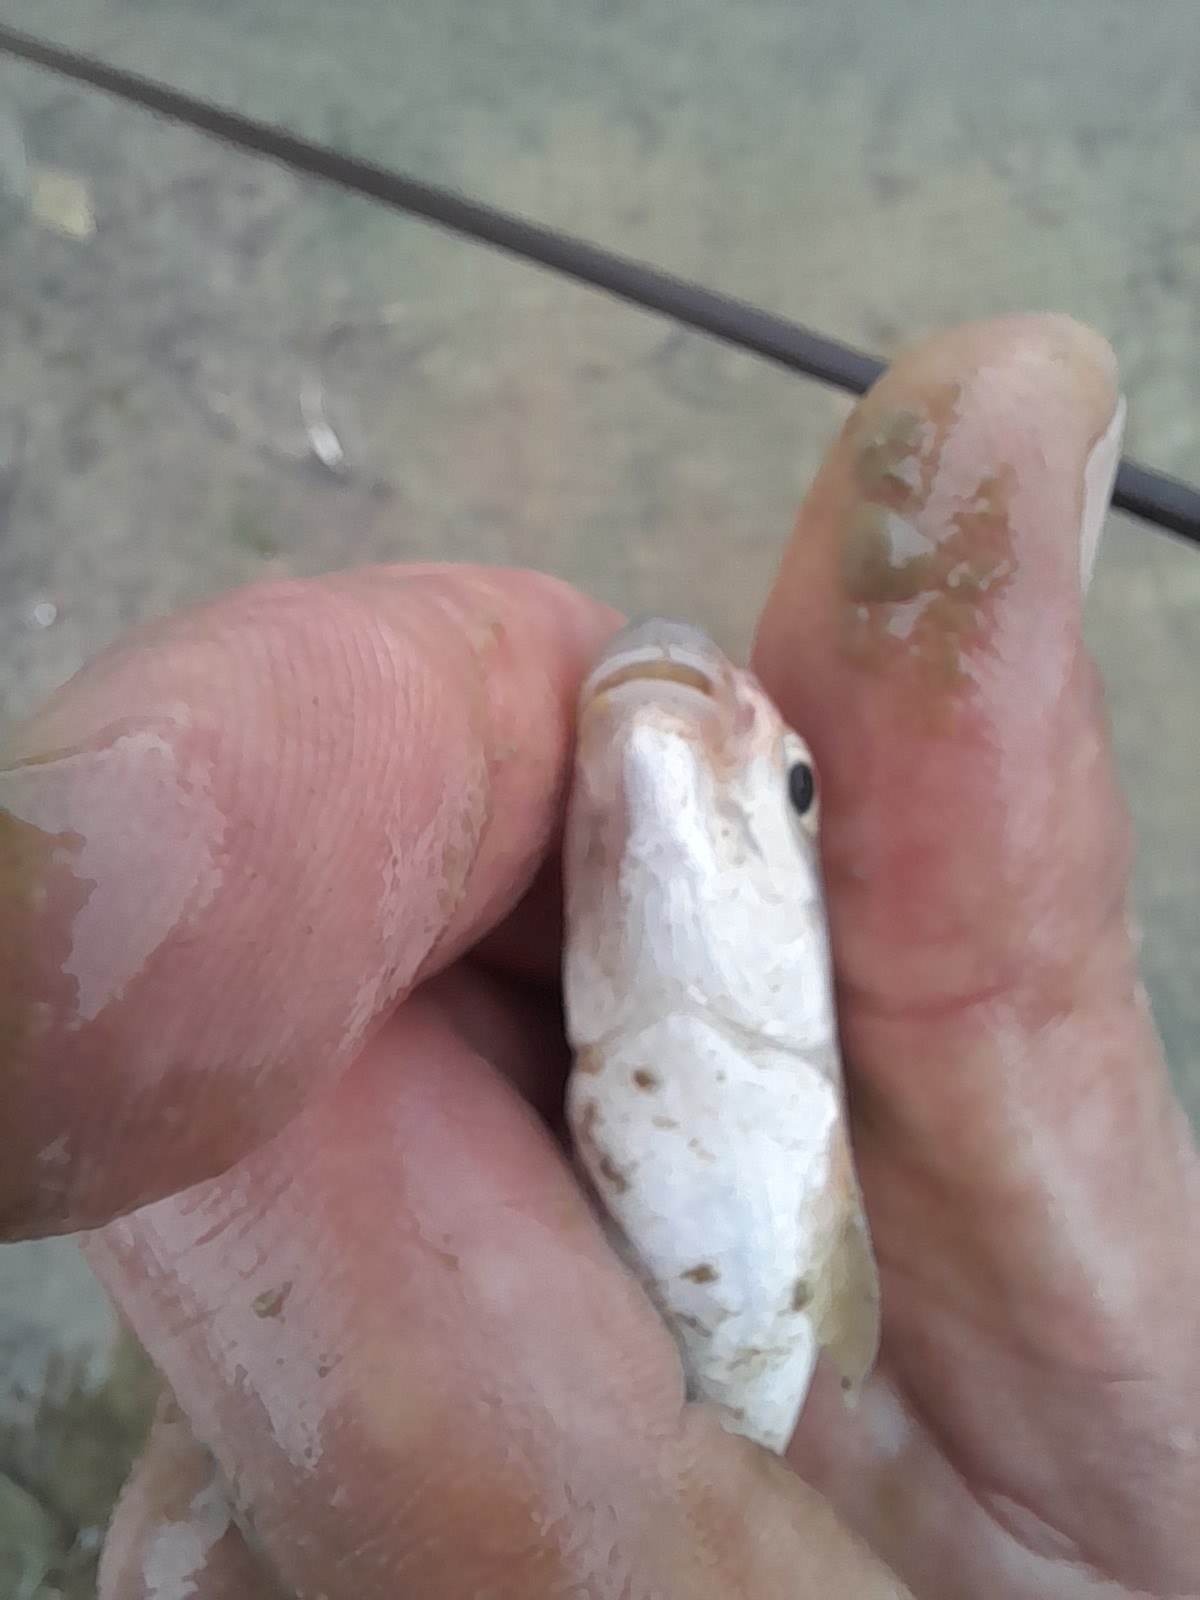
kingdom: Animalia
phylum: Chordata
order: Cypriniformes
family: Cyprinidae
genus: Protochondrostoma
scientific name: Protochondrostoma genei
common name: South european nase
